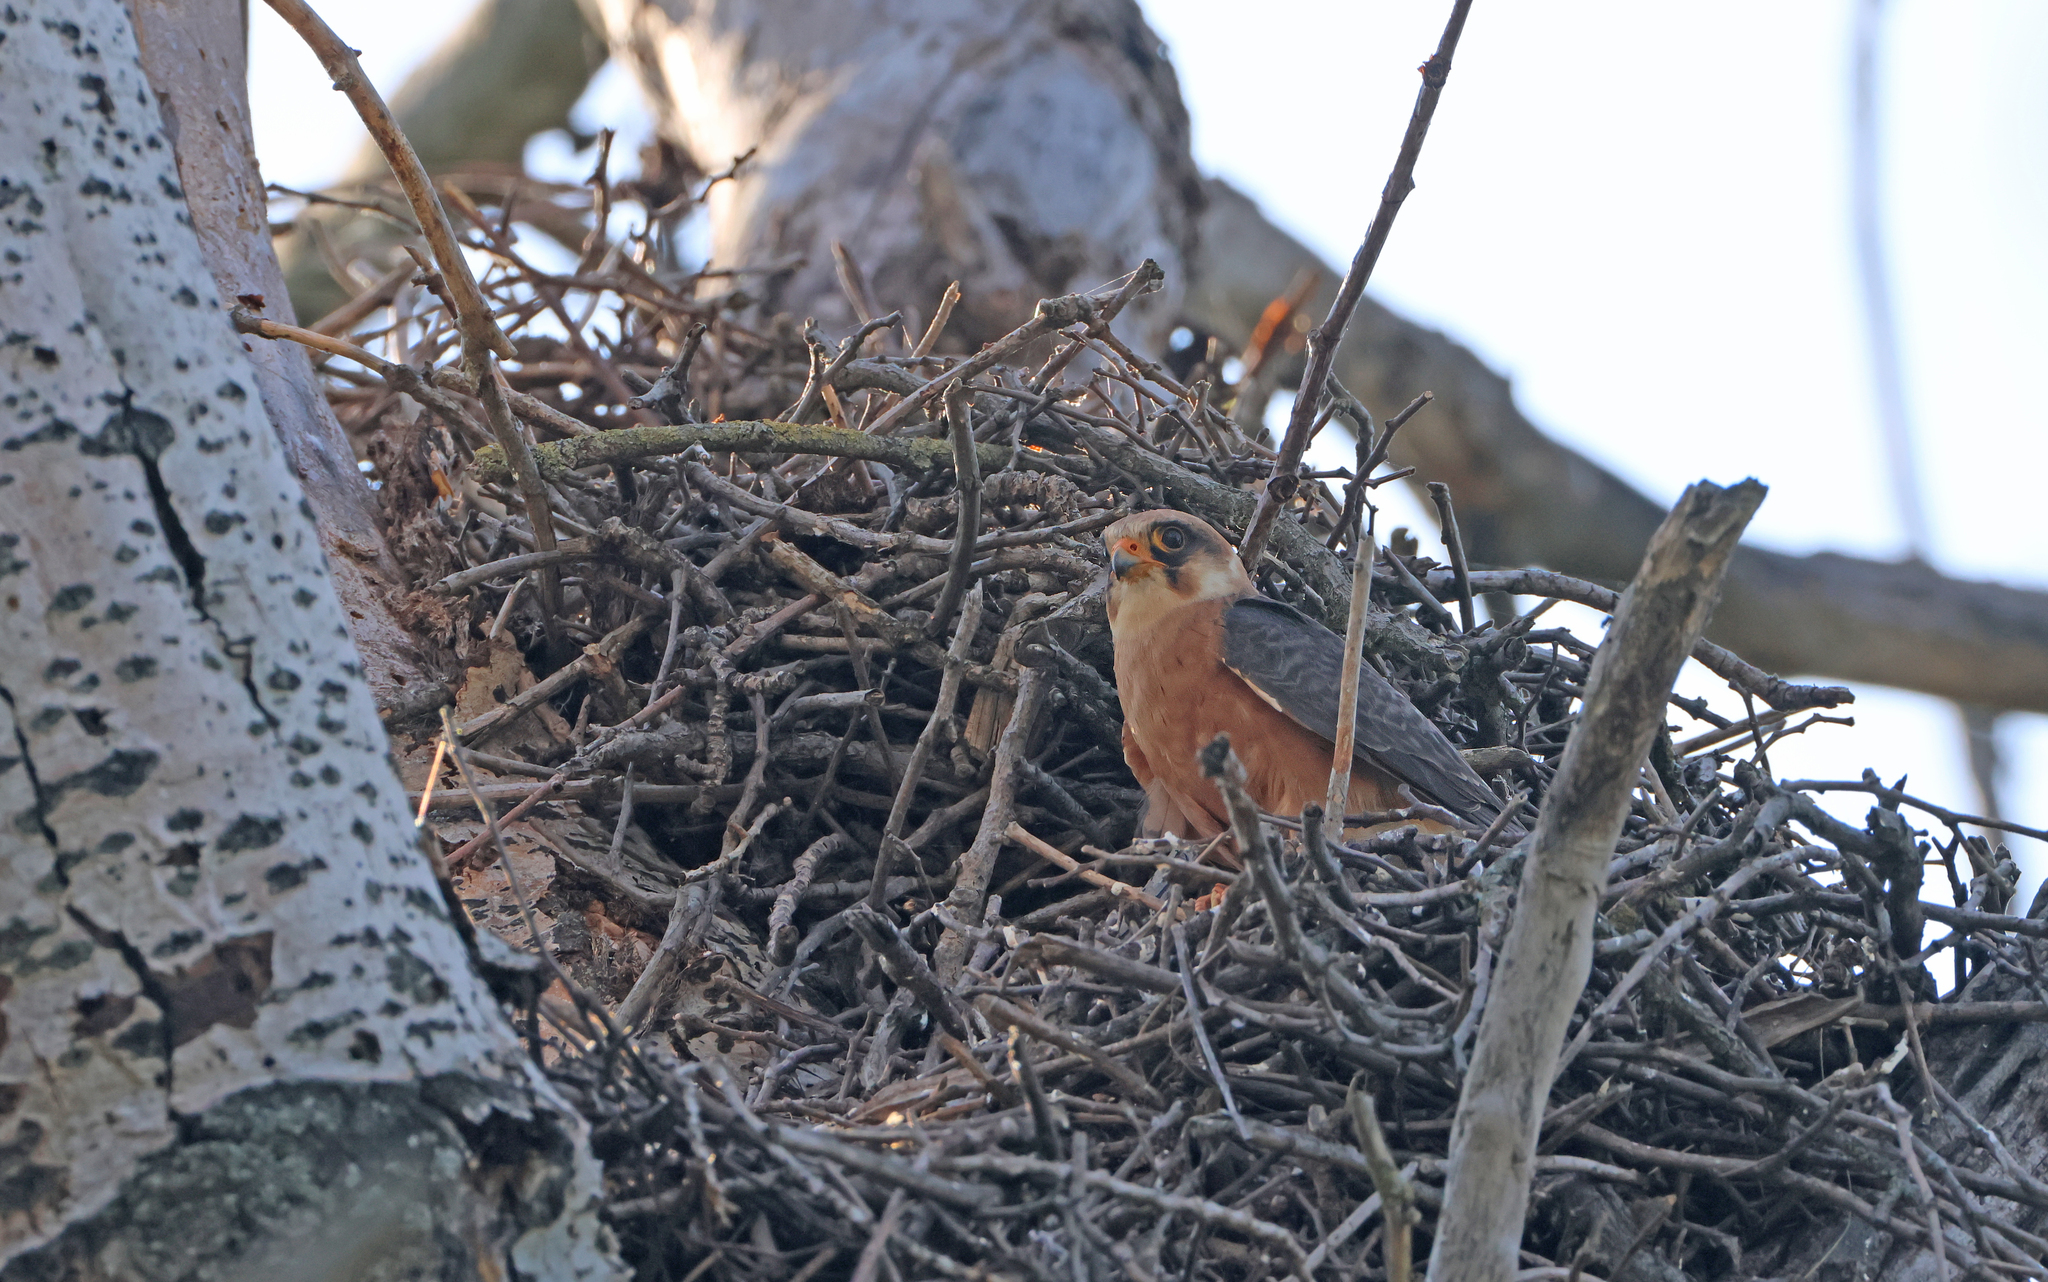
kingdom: Animalia
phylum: Chordata
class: Aves
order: Falconiformes
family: Falconidae
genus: Falco
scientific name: Falco vespertinus
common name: Red-footed falcon
